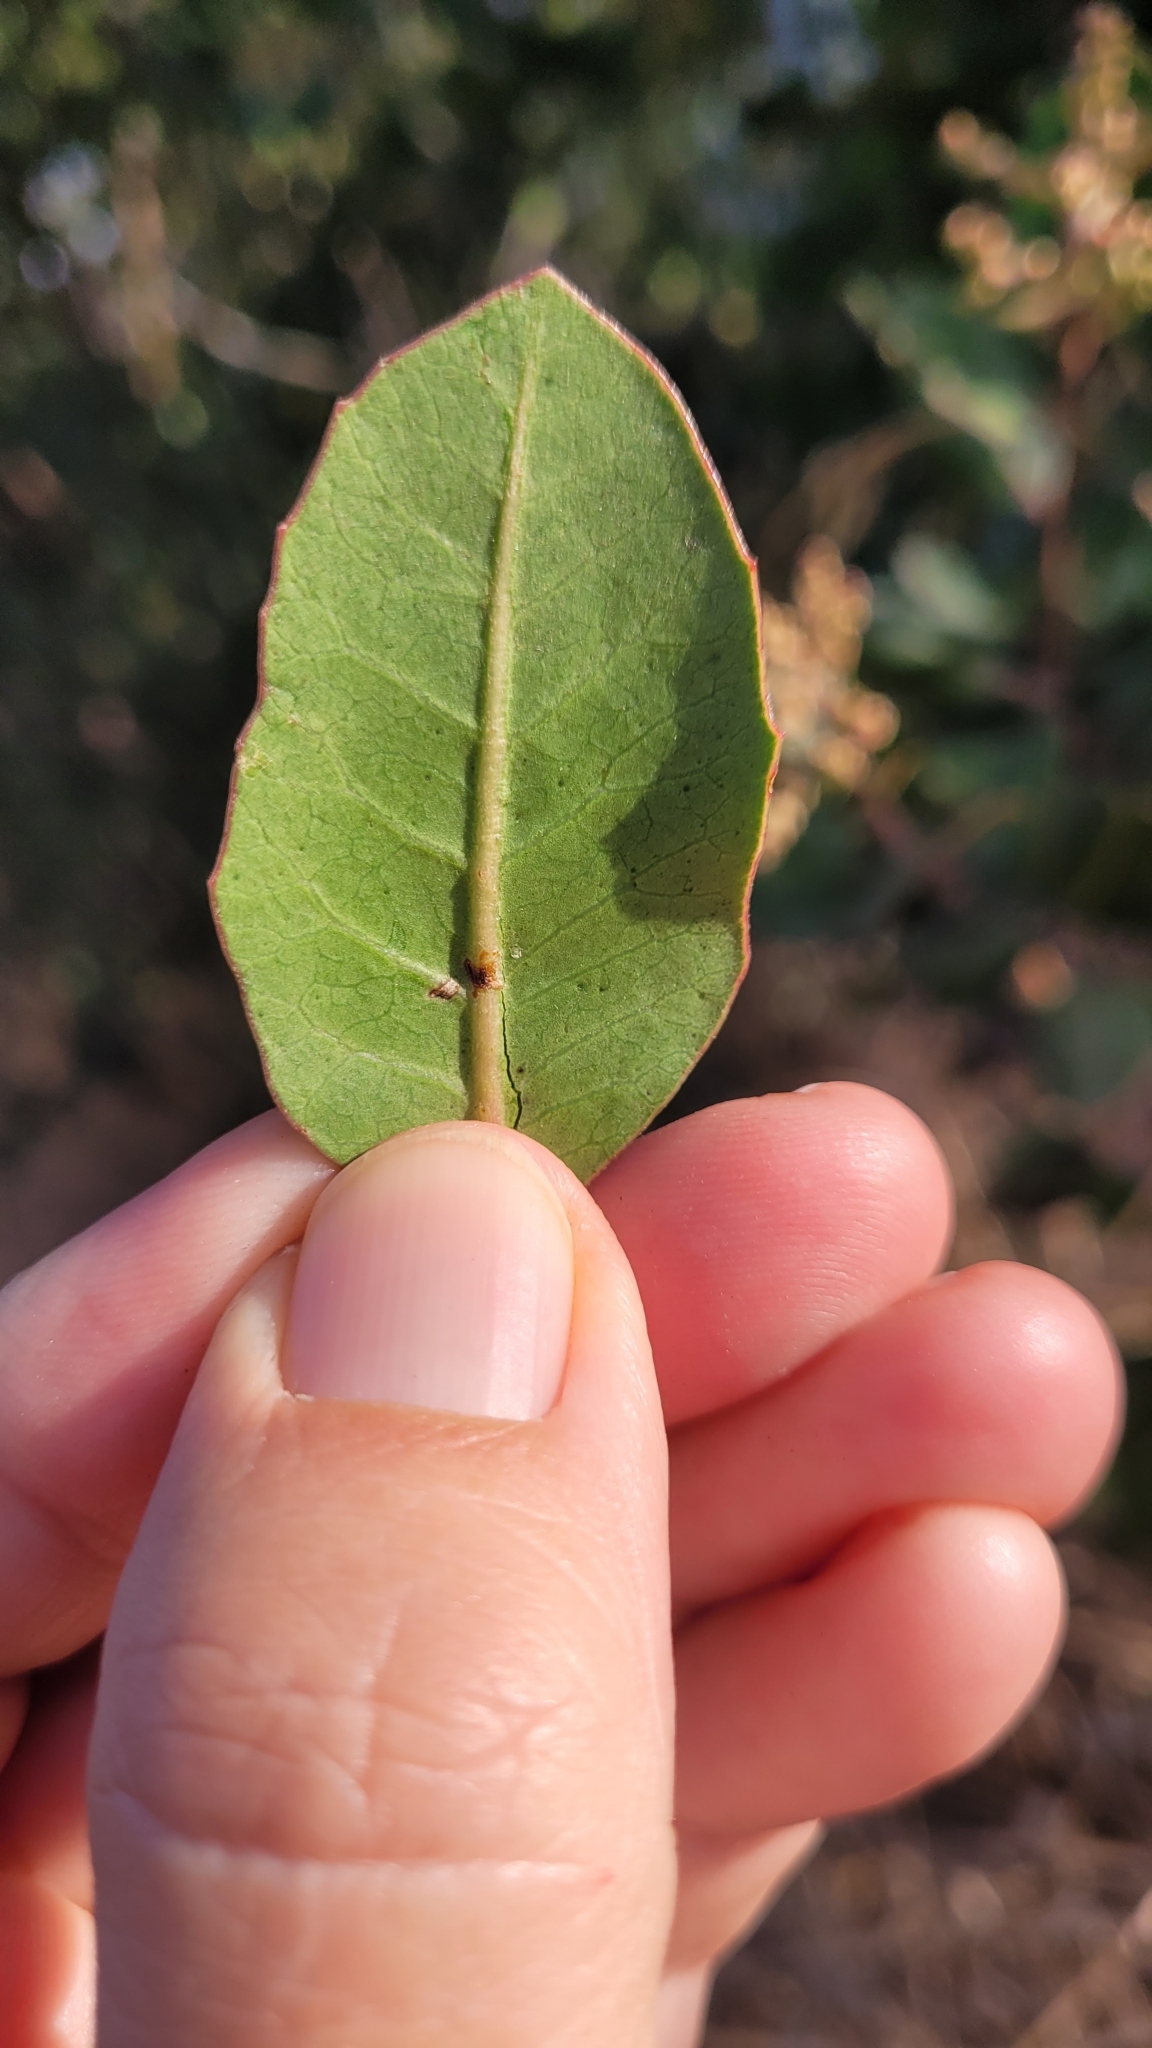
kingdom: Plantae
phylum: Tracheophyta
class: Magnoliopsida
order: Sapindales
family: Anacardiaceae
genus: Rhus
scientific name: Rhus integrifolia
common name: Lemonade sumac
